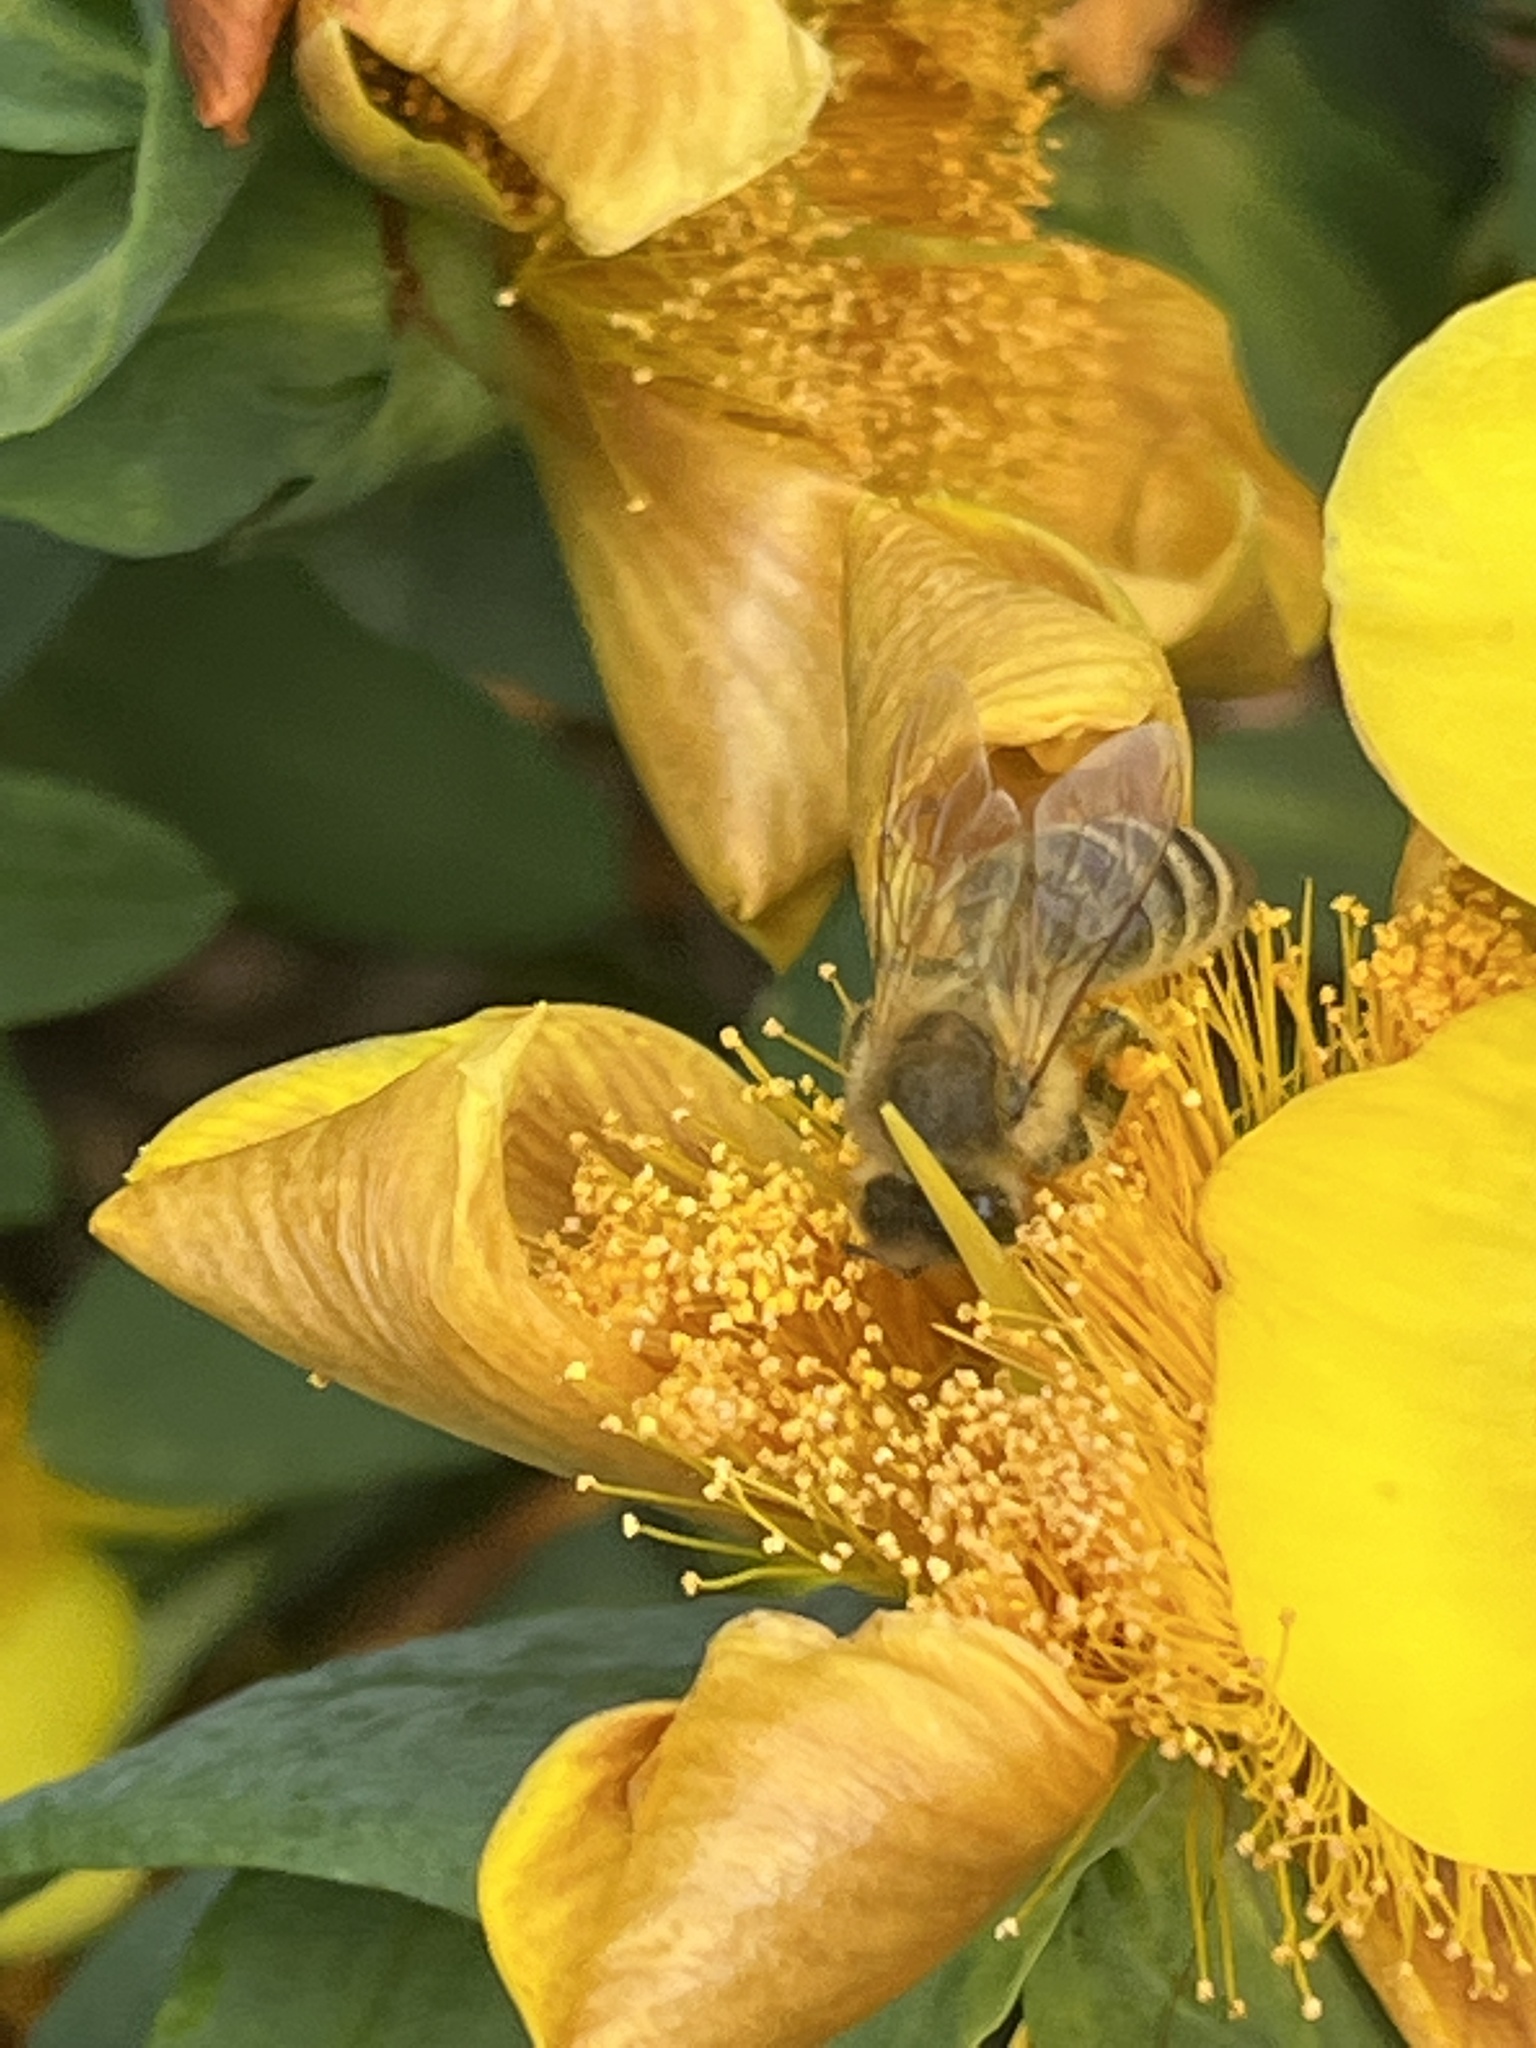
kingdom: Animalia
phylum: Arthropoda
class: Insecta
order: Hymenoptera
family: Apidae
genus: Apis
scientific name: Apis mellifera
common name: Honey bee
